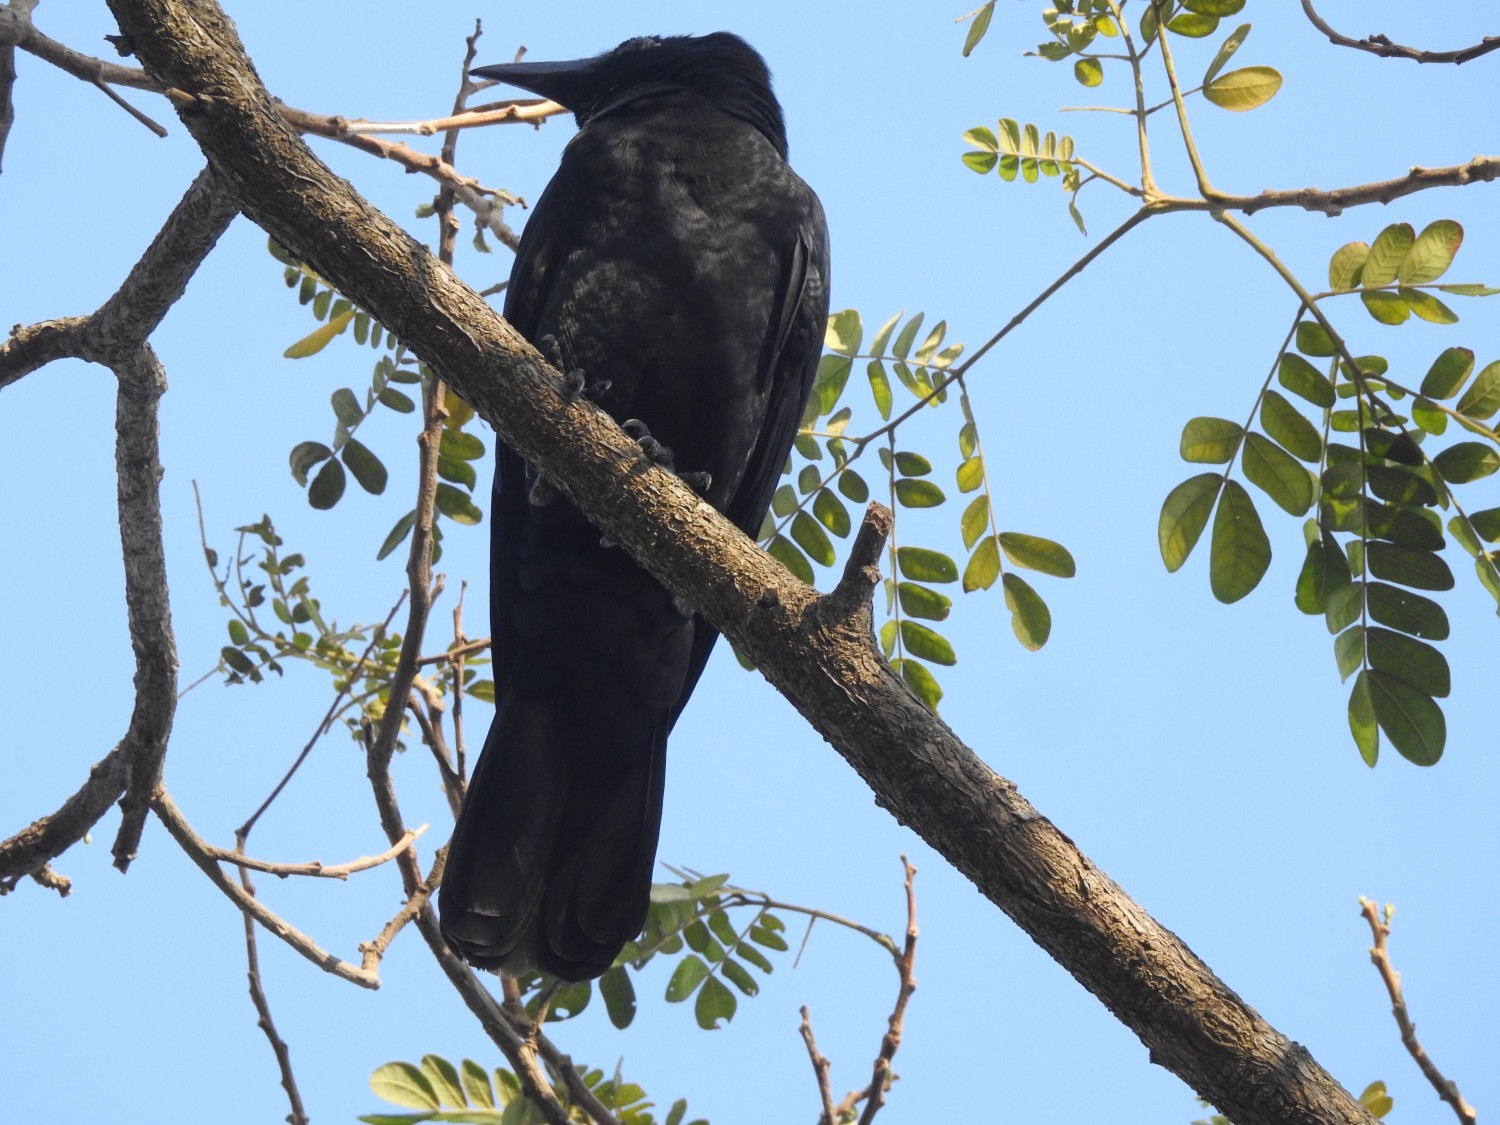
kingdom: Animalia
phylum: Chordata
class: Aves
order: Passeriformes
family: Corvidae
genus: Corvus
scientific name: Corvus macrorhynchos
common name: Large-billed crow
